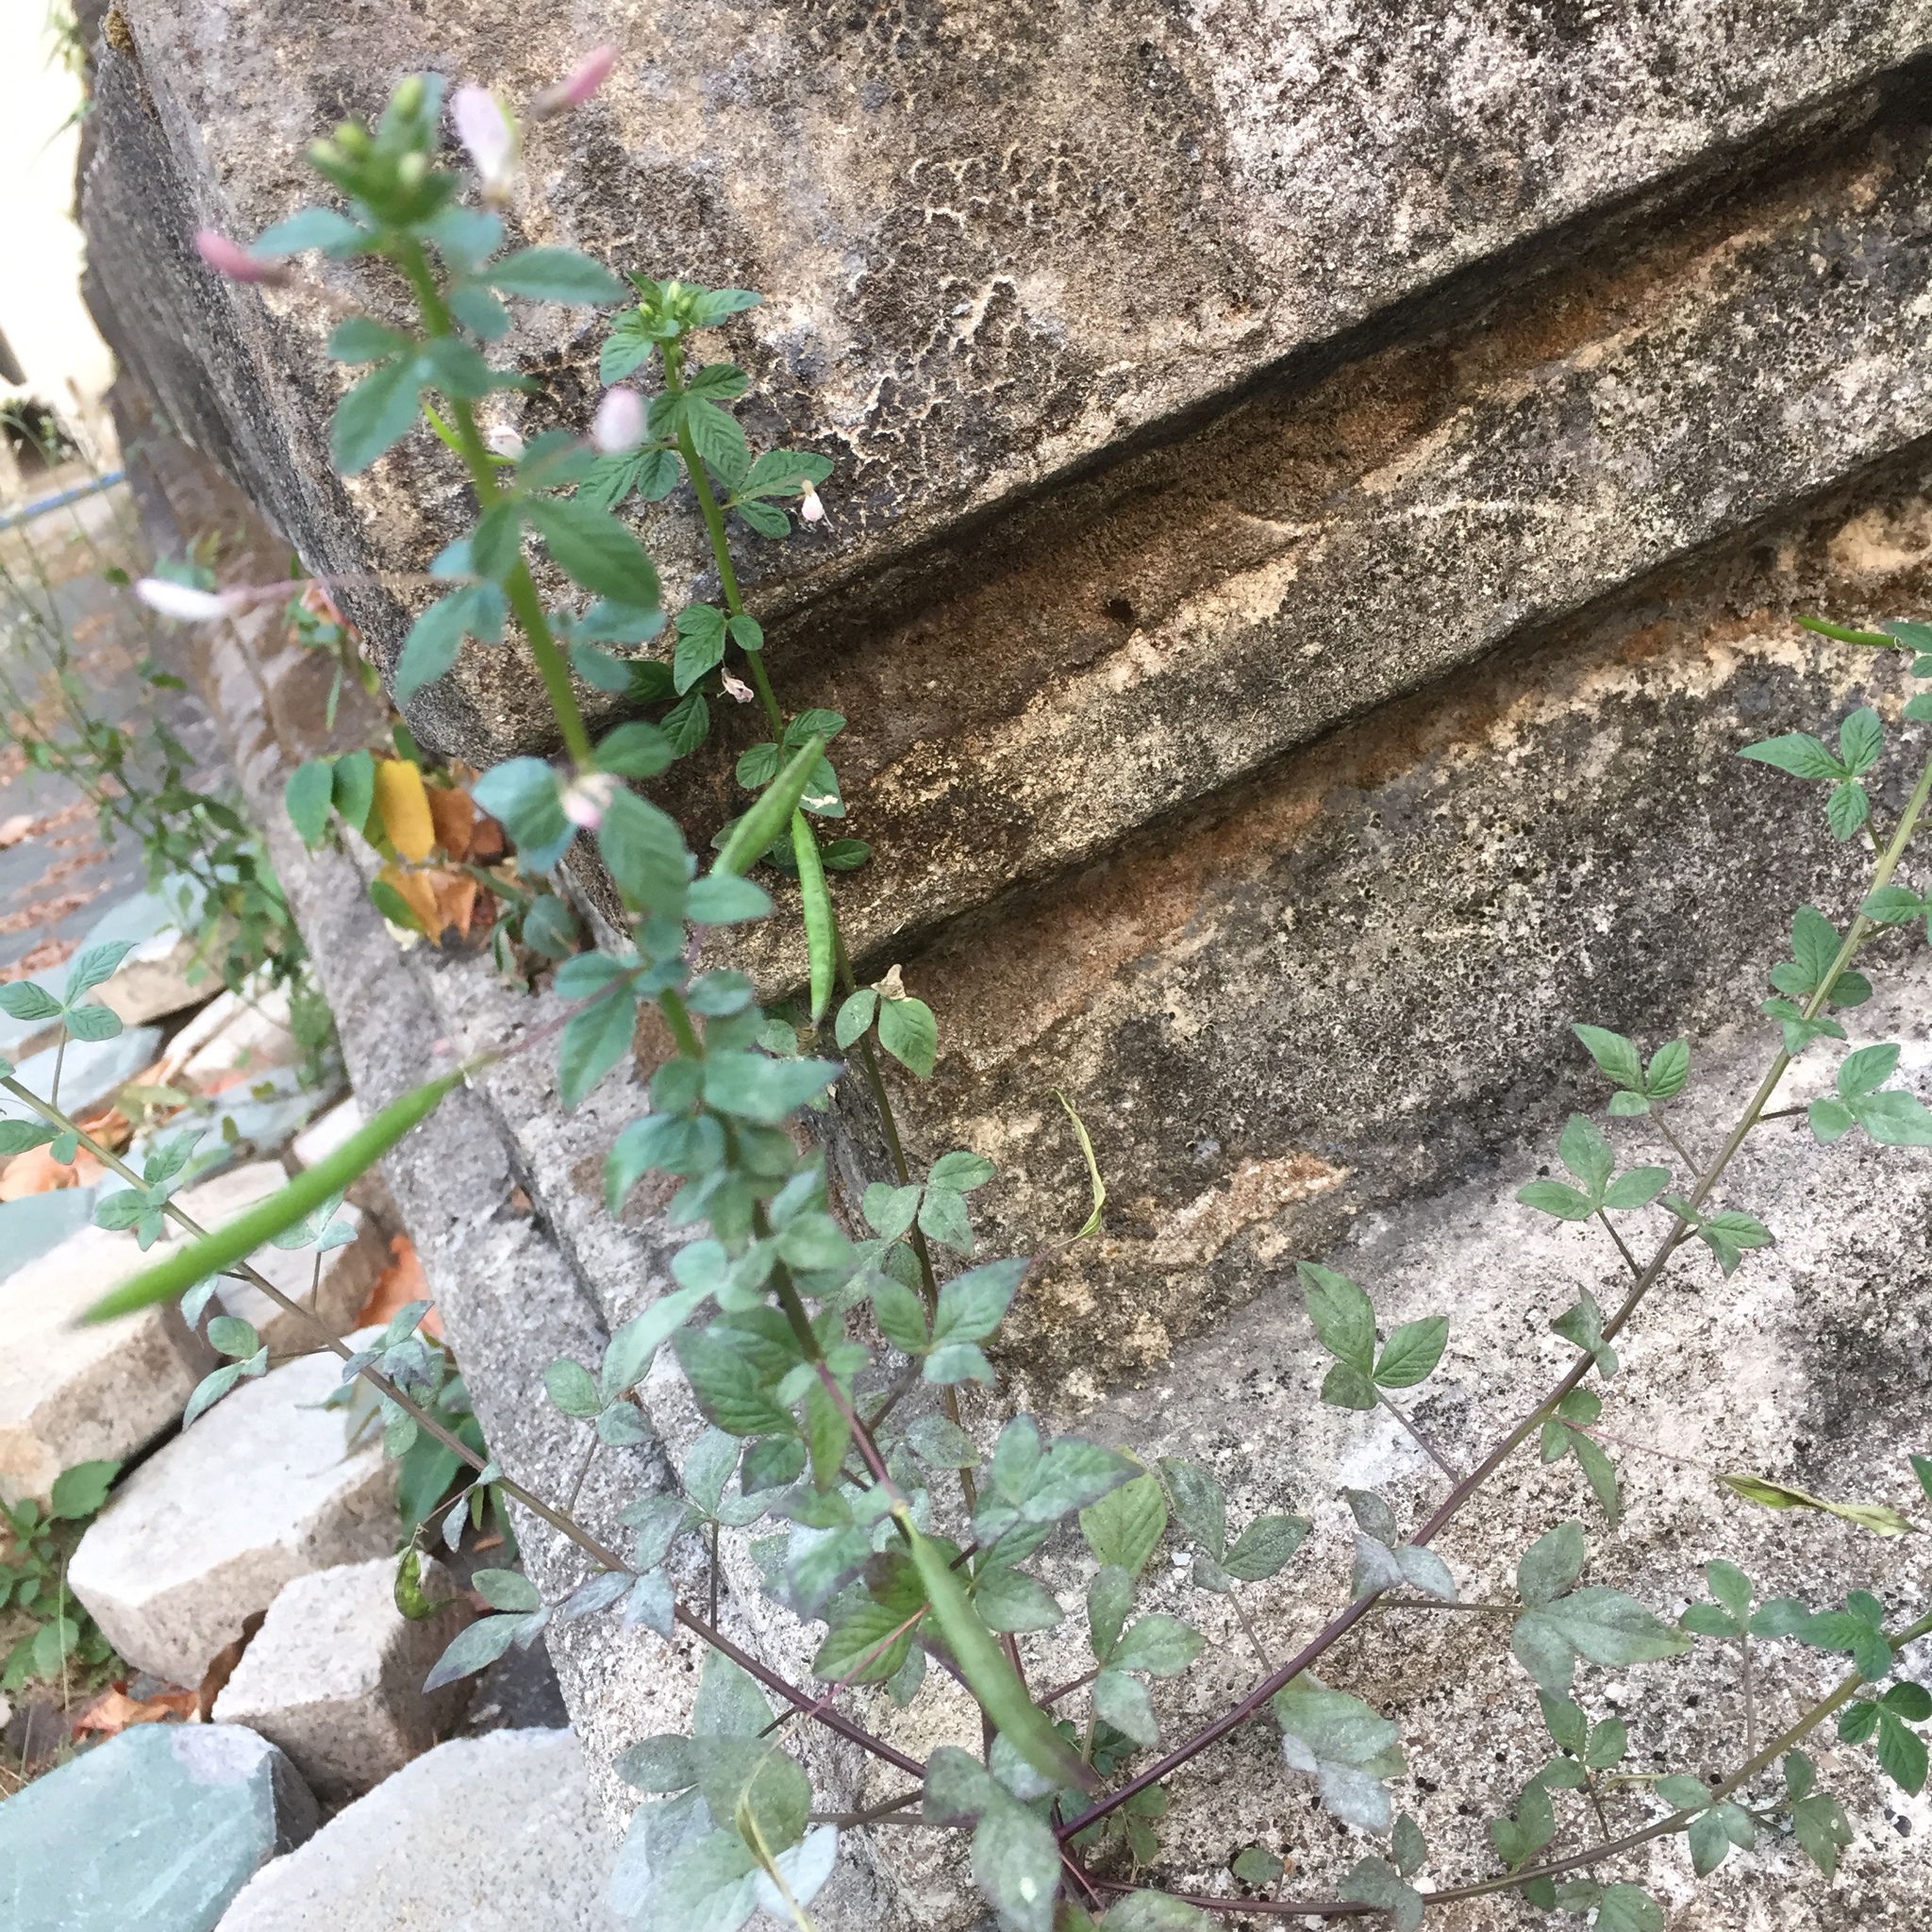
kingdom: Plantae
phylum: Tracheophyta
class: Magnoliopsida
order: Brassicales
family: Cleomaceae
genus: Sieruela
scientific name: Sieruela rutidosperma
